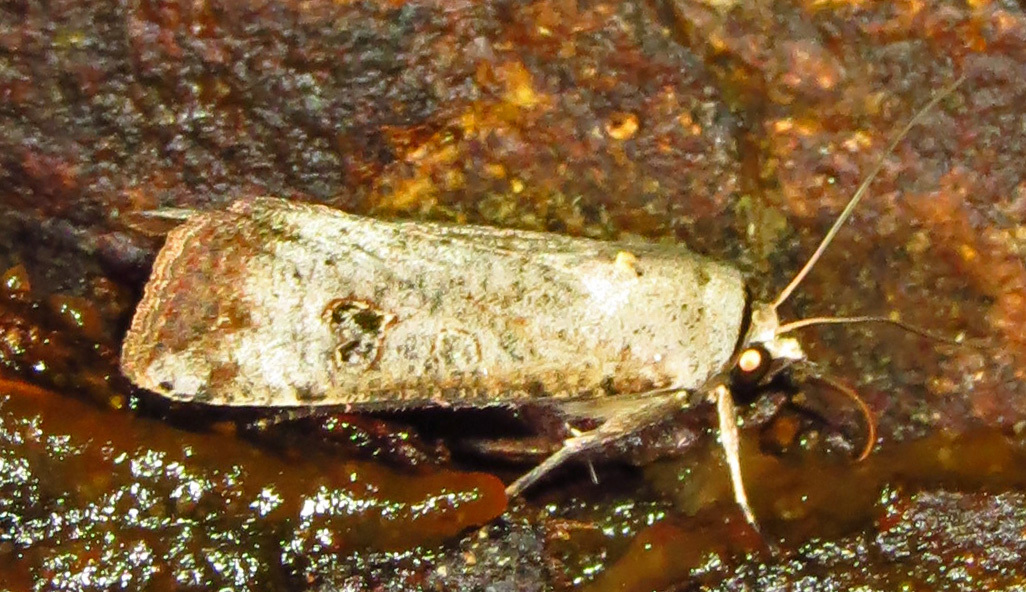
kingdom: Animalia
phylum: Arthropoda
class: Insecta
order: Lepidoptera
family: Noctuidae
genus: Anicla
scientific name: Anicla infecta
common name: Green cutworm
